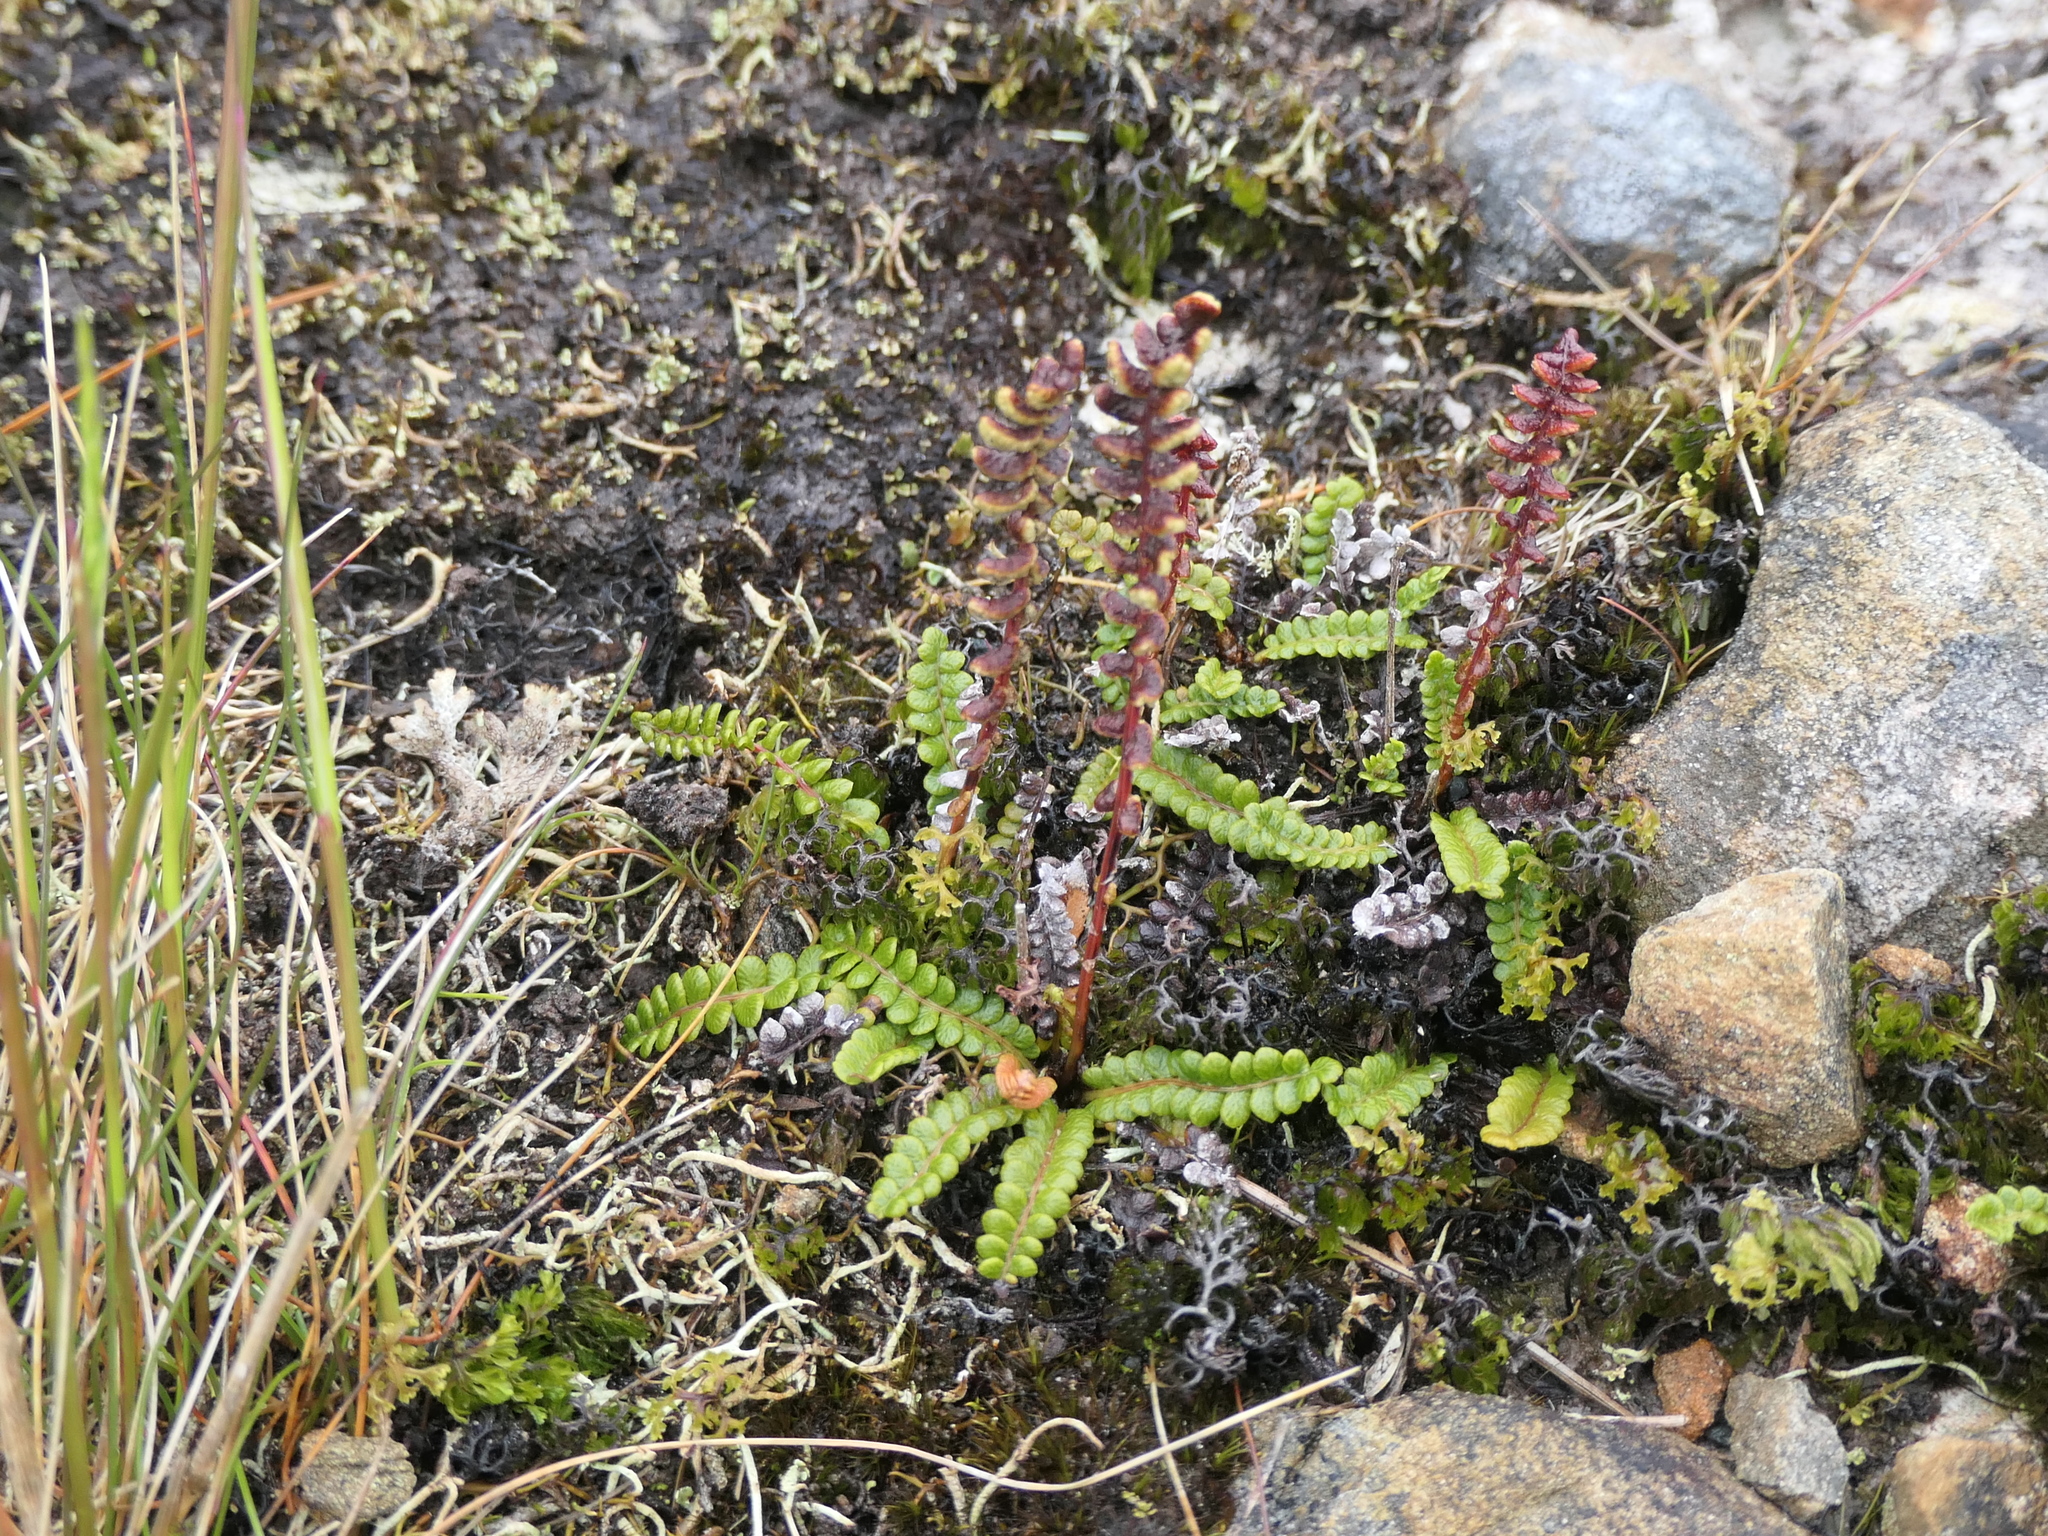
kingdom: Plantae
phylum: Tracheophyta
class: Polypodiopsida
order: Polypodiales
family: Blechnaceae
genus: Austroblechnum
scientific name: Austroblechnum penna-marina
